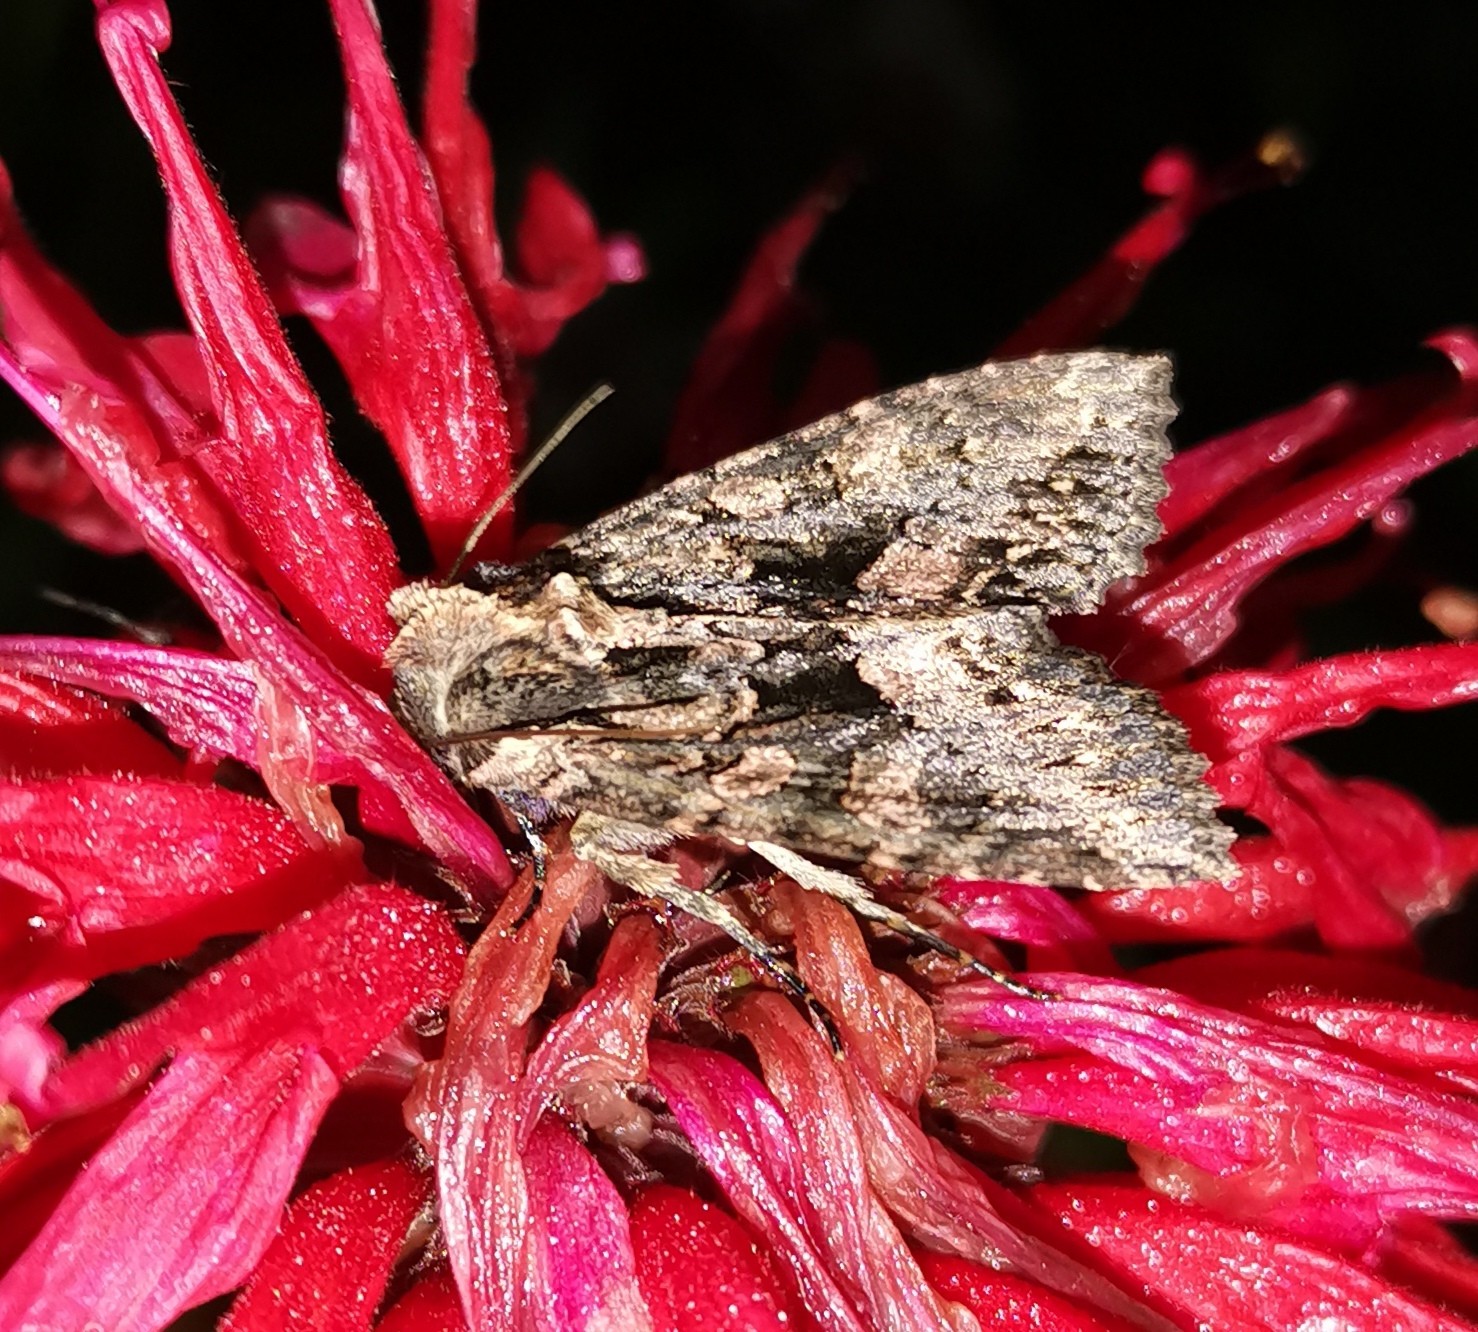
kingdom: Animalia
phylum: Arthropoda
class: Insecta
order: Lepidoptera
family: Noctuidae
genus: Mniotype
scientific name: Mniotype satura
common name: Beautiful arches
